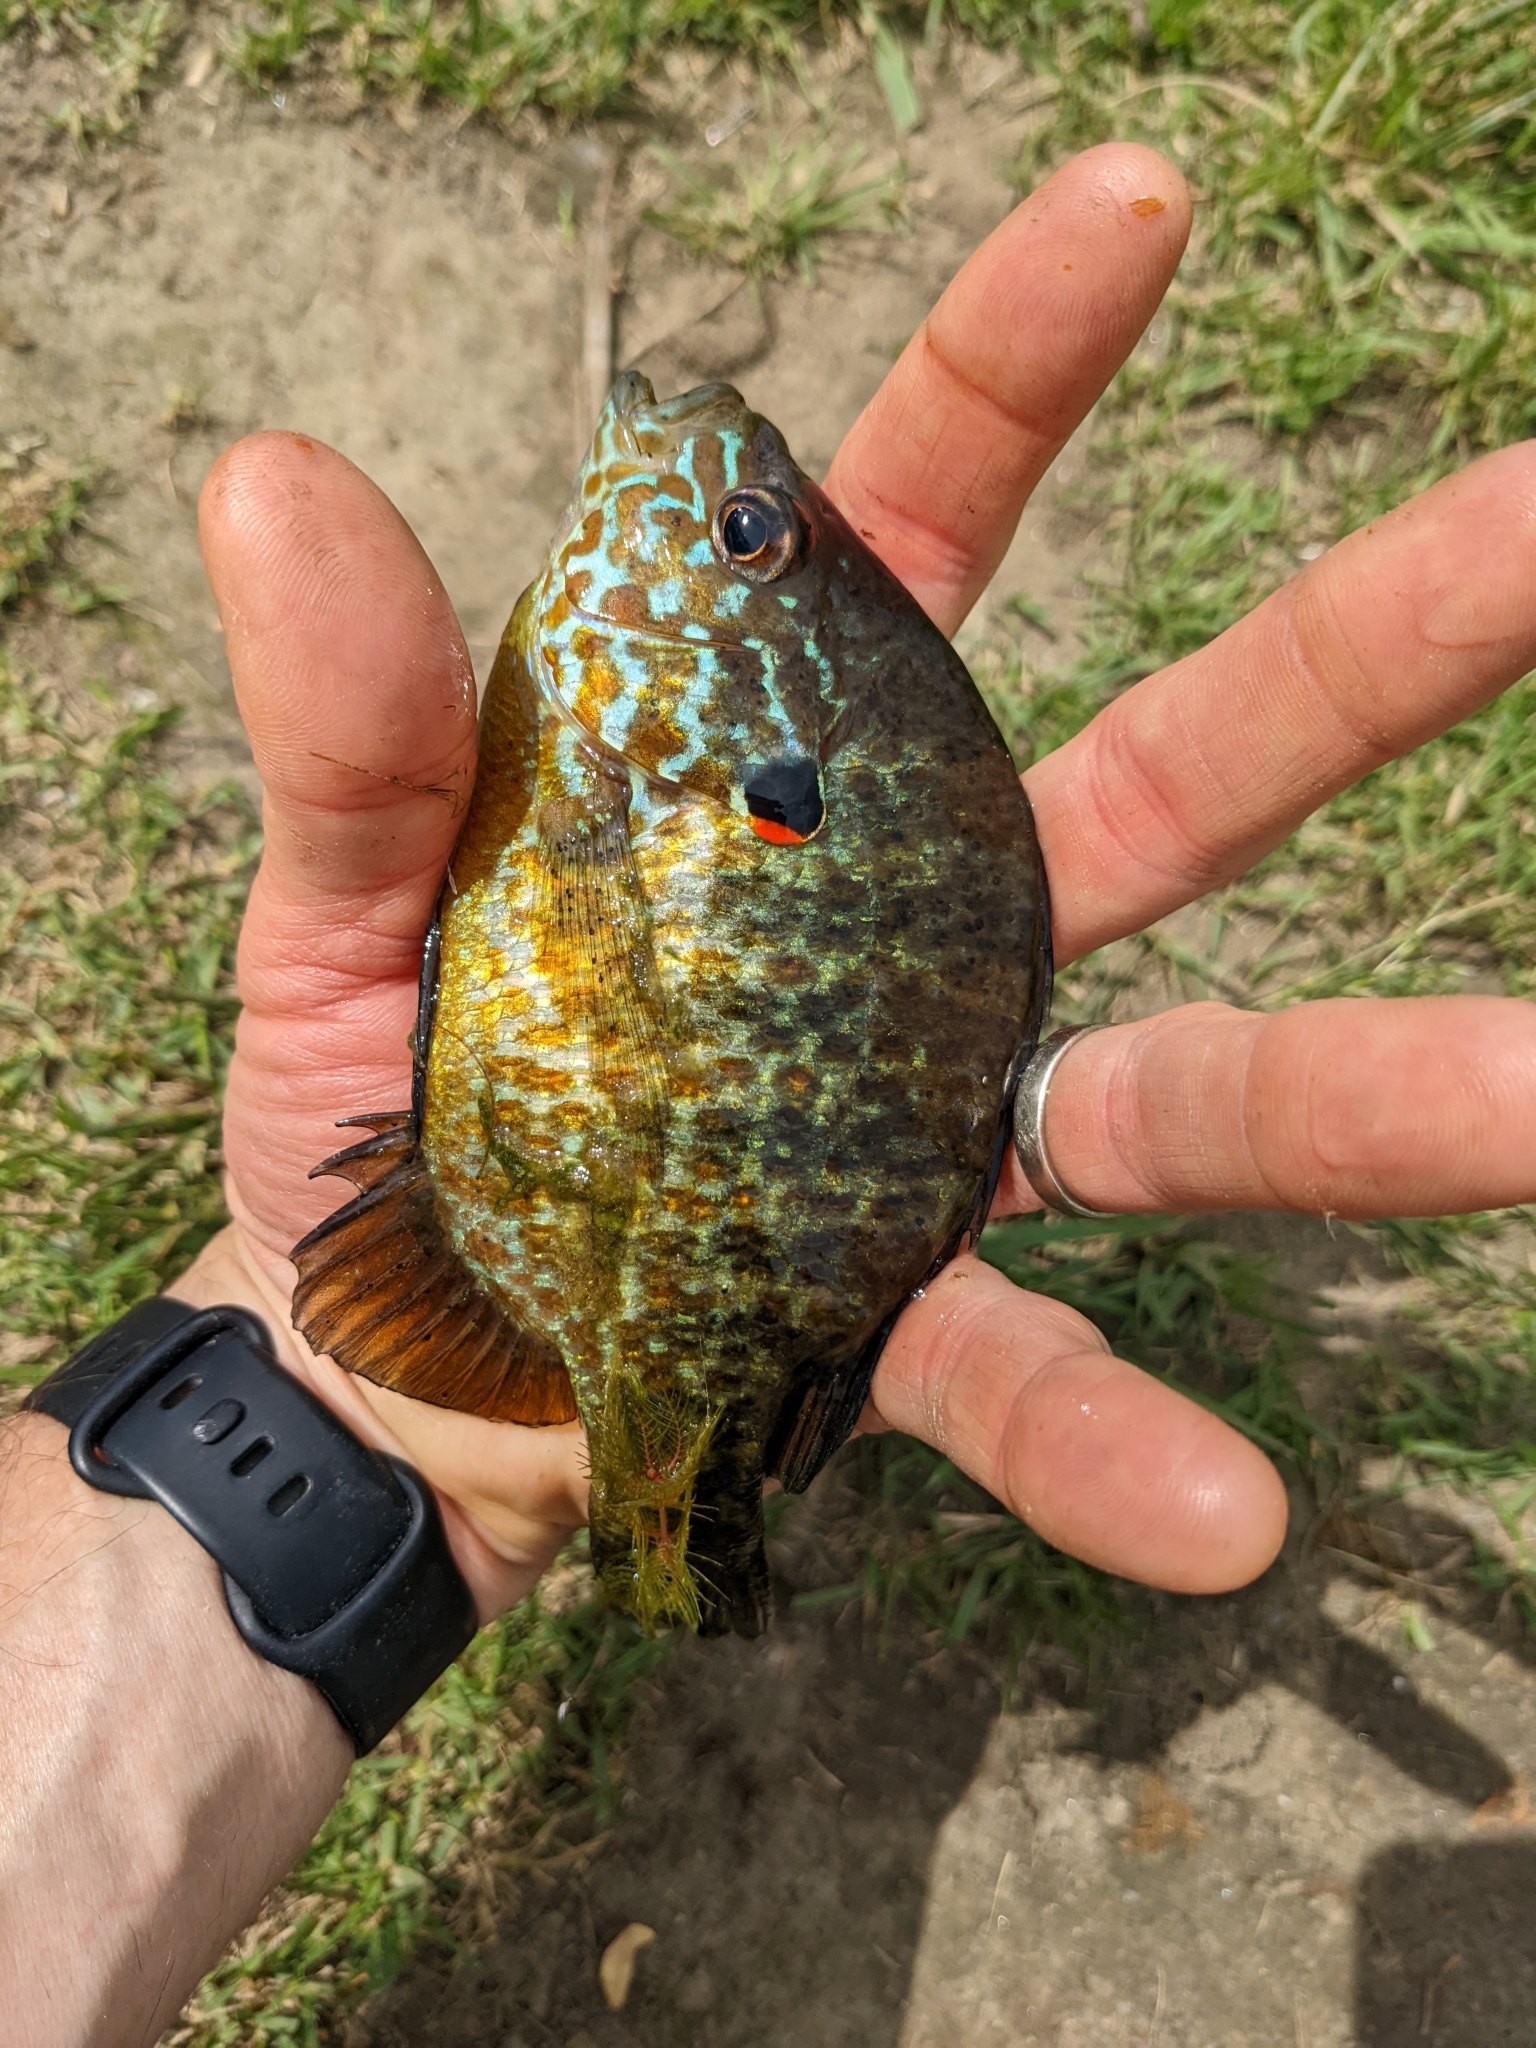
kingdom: Animalia
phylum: Chordata
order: Perciformes
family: Centrarchidae
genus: Lepomis
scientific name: Lepomis gibbosus
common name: Pumpkinseed
